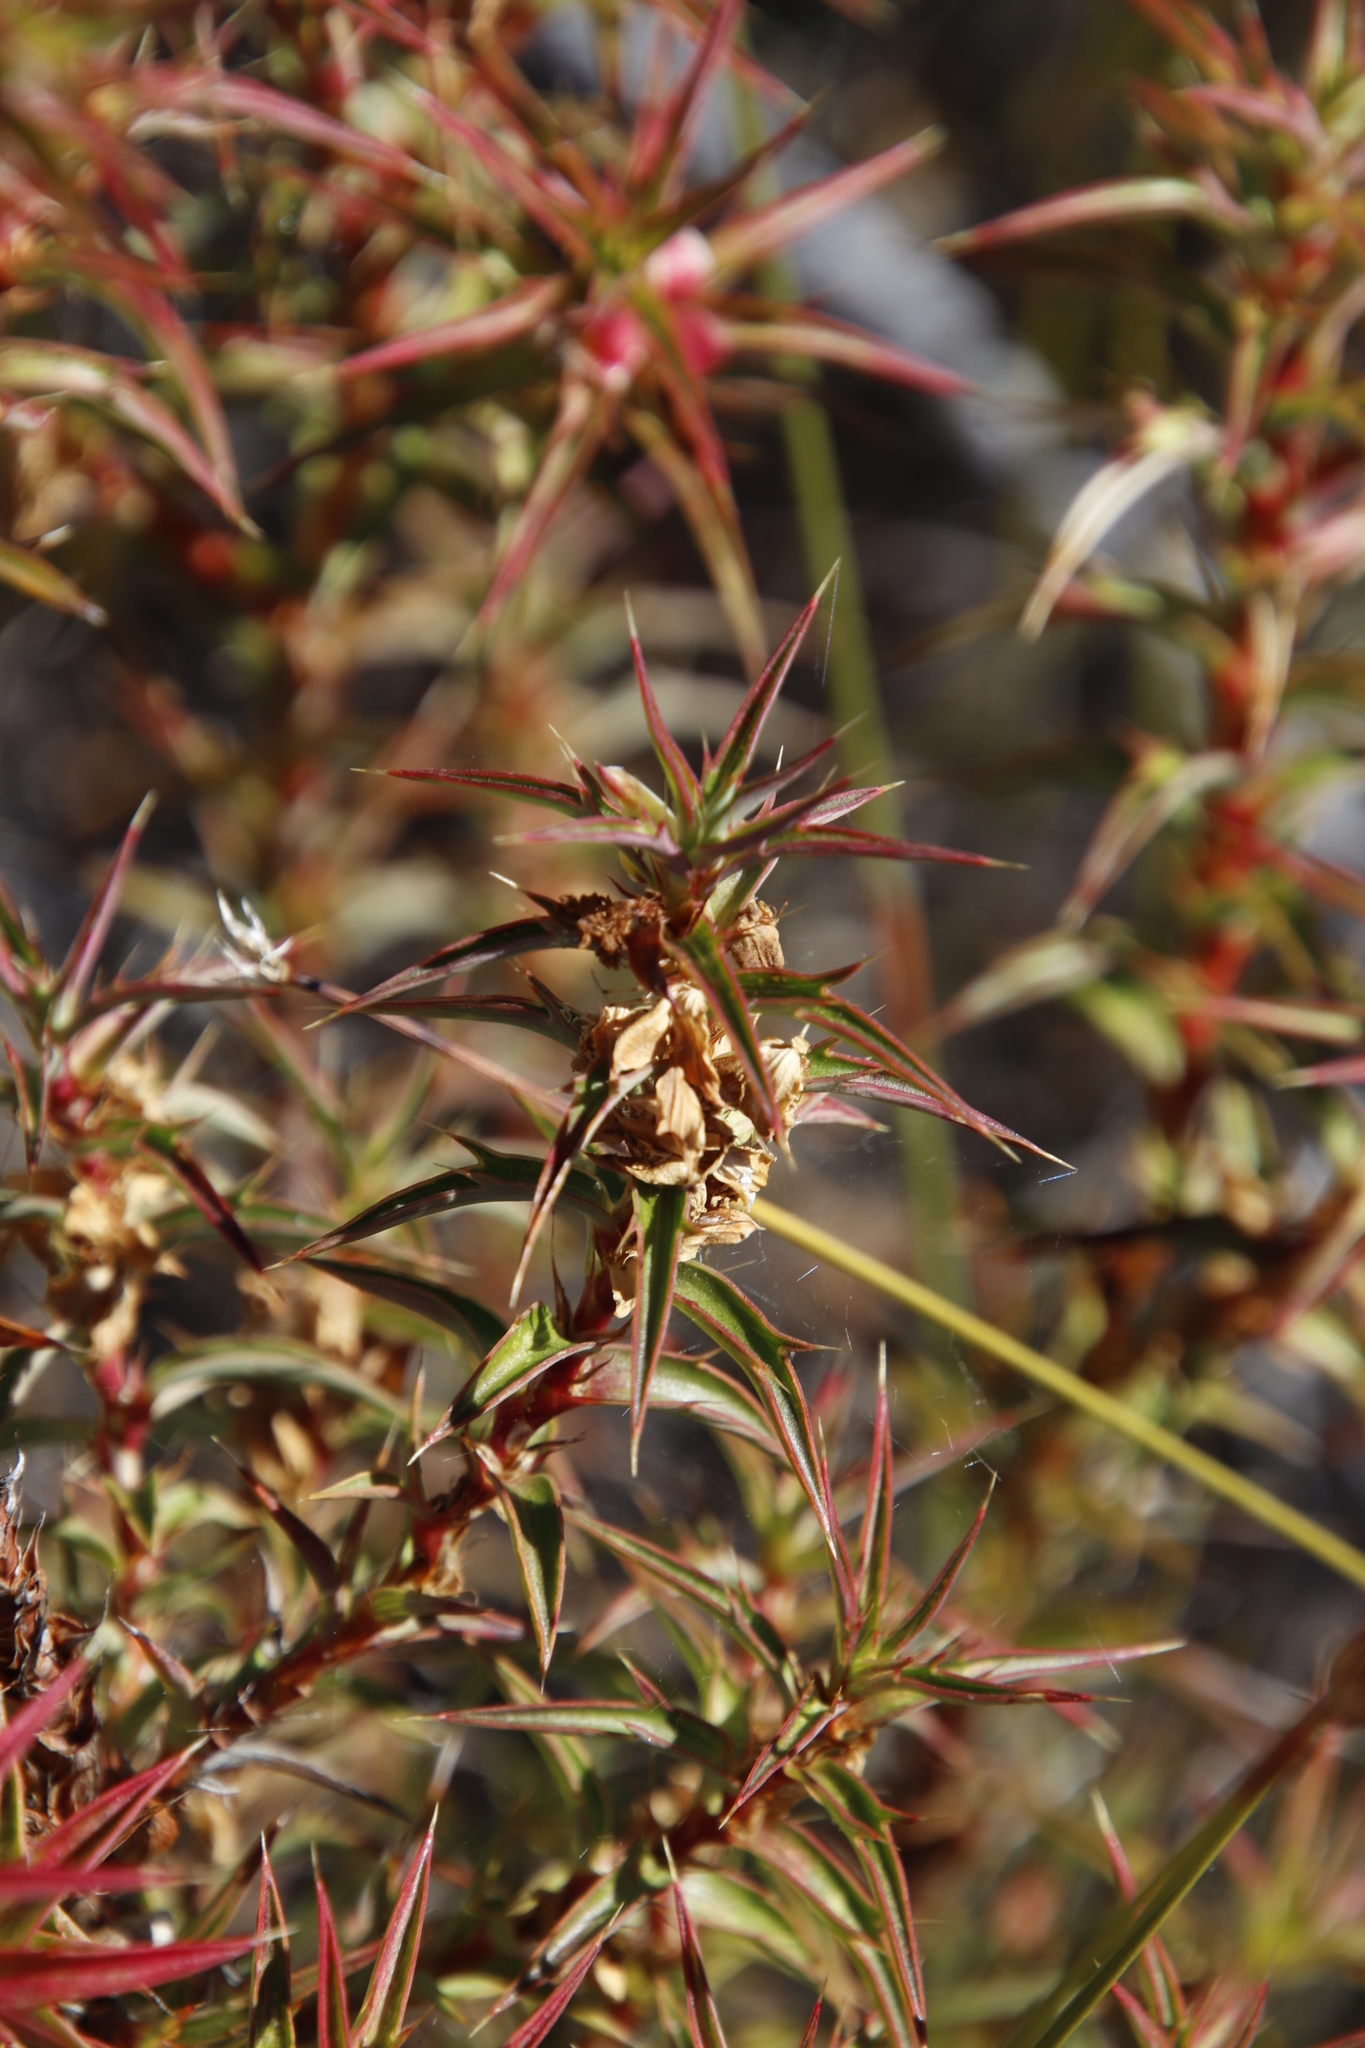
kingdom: Plantae
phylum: Tracheophyta
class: Magnoliopsida
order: Rosales
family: Rosaceae
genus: Cliffortia
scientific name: Cliffortia acanthophylla
